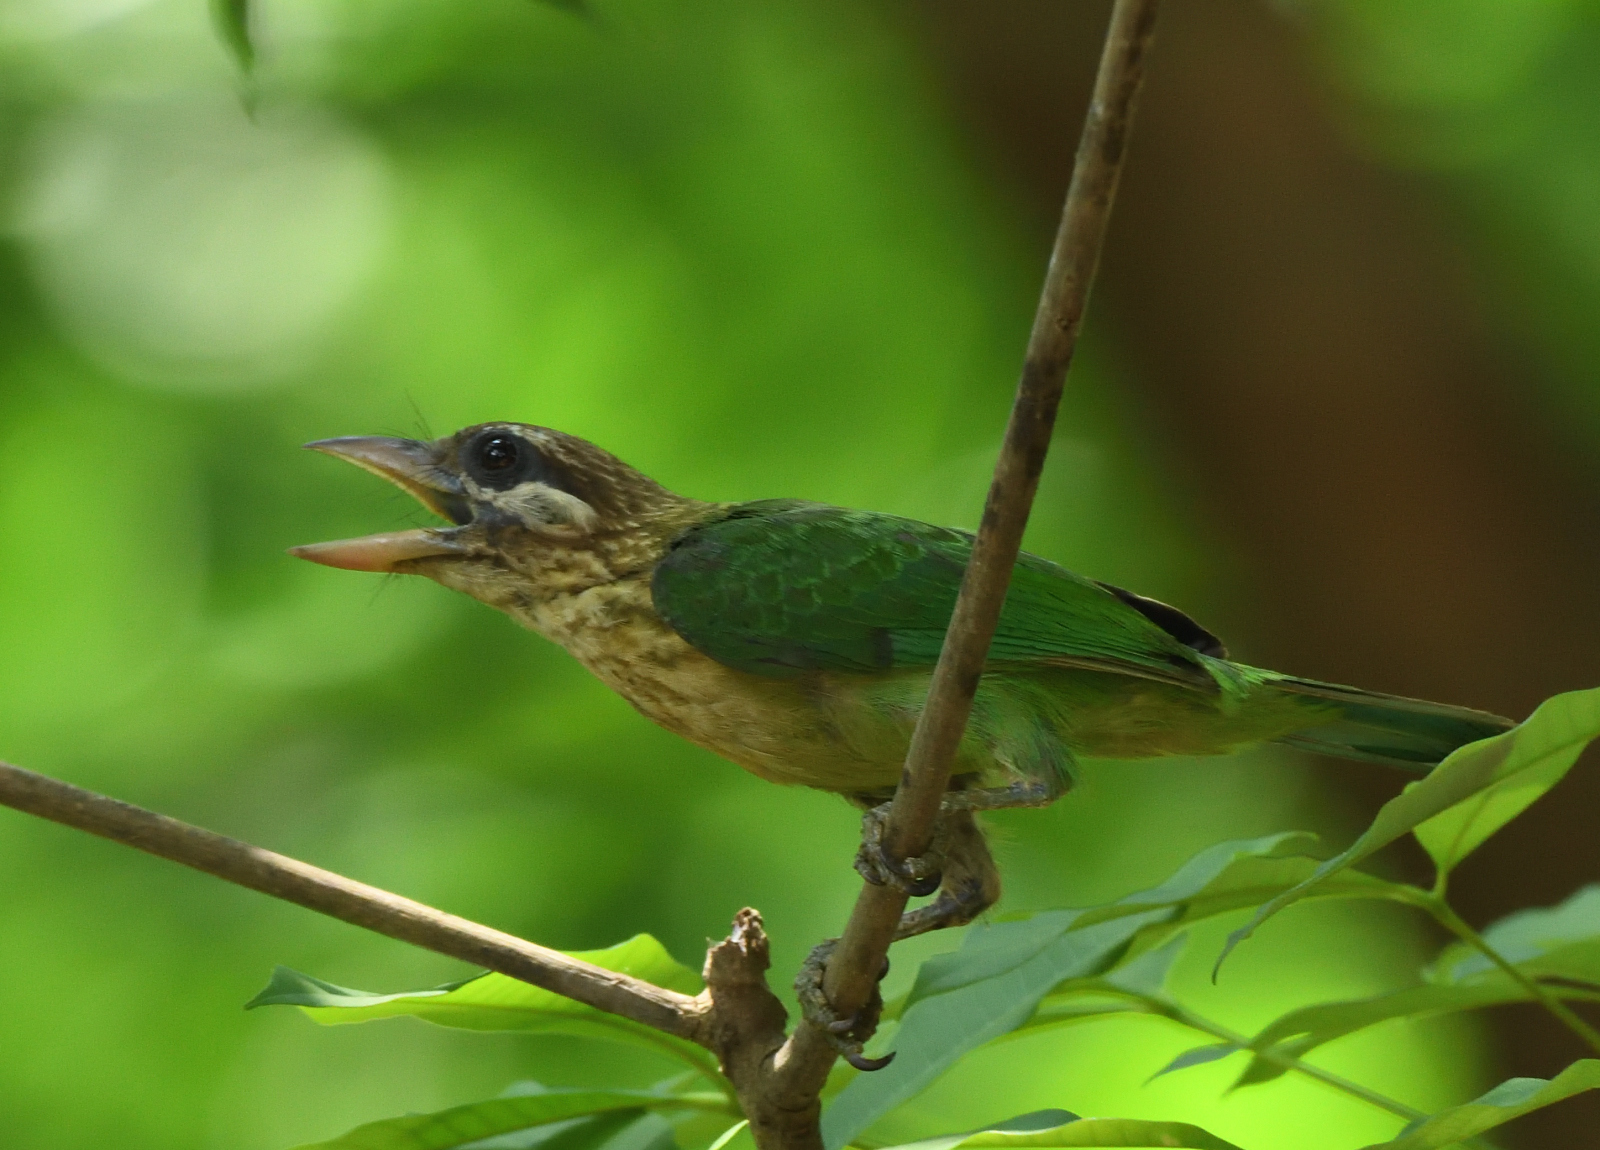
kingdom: Animalia
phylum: Chordata
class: Aves
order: Piciformes
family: Megalaimidae
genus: Psilopogon
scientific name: Psilopogon viridis
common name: White-cheeked barbet
